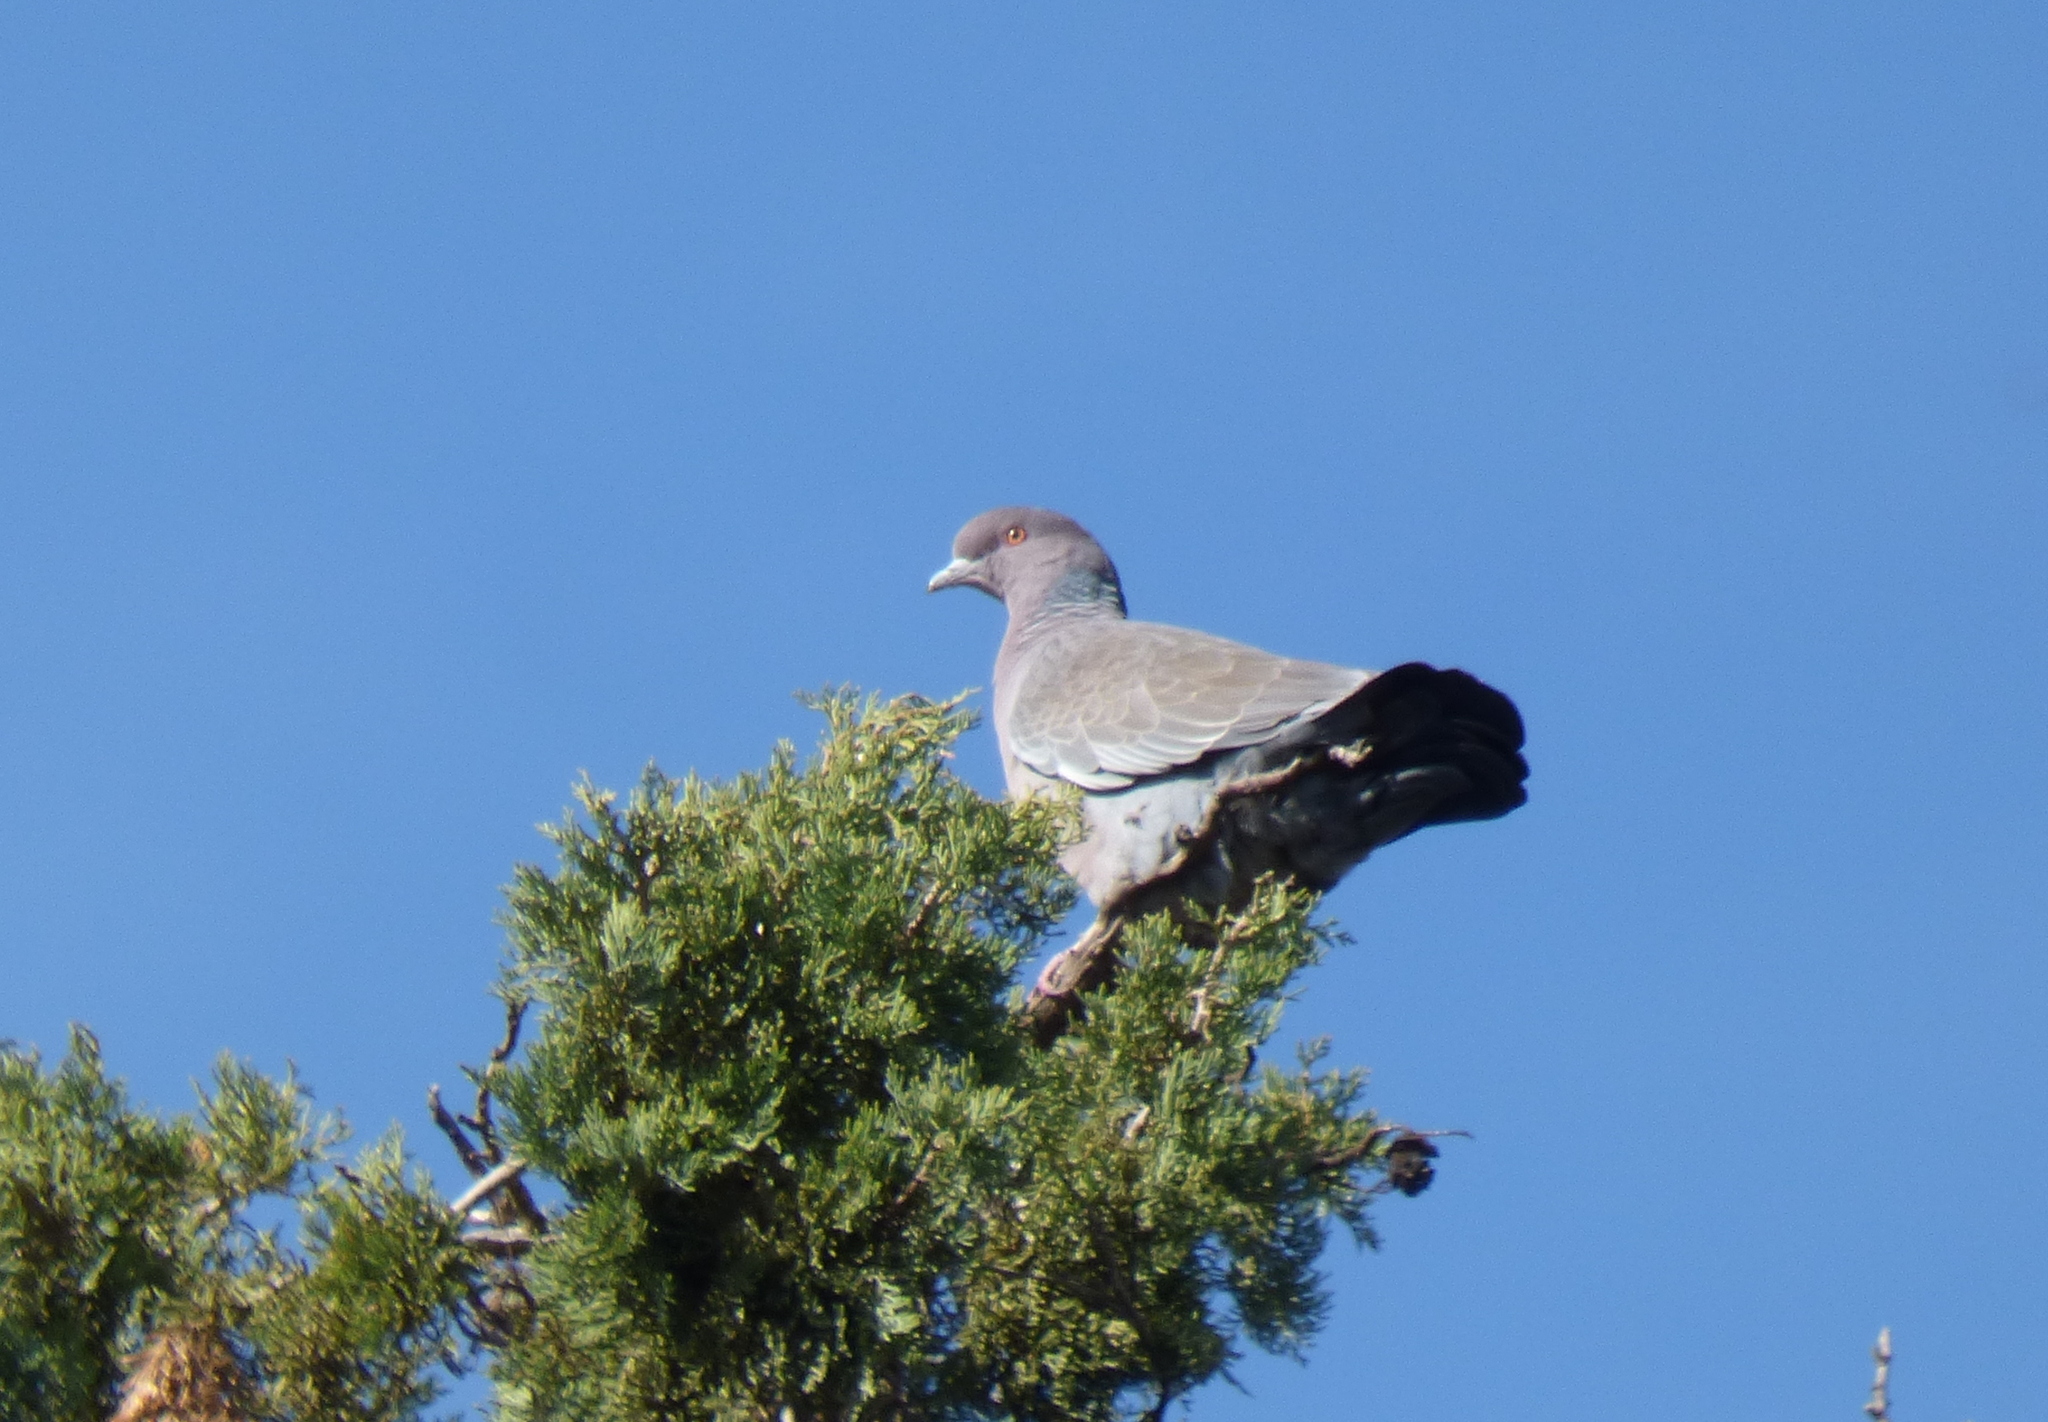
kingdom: Animalia
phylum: Chordata
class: Aves
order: Columbiformes
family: Columbidae
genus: Patagioenas
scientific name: Patagioenas picazuro
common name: Picazuro pigeon
